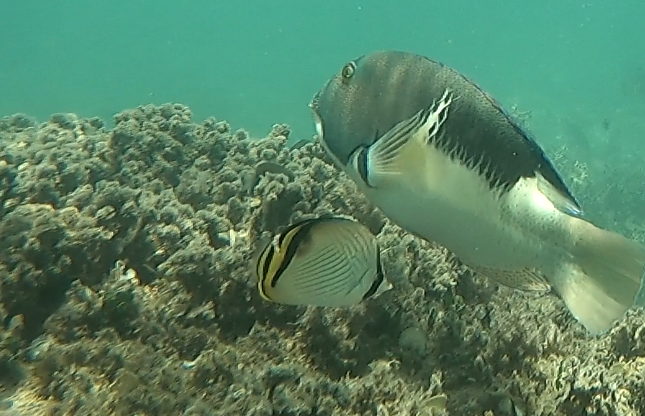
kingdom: Animalia
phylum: Chordata
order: Perciformes
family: Chaetodontidae
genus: Chaetodon
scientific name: Chaetodon vagabundus
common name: Vagabond butterflyfish
